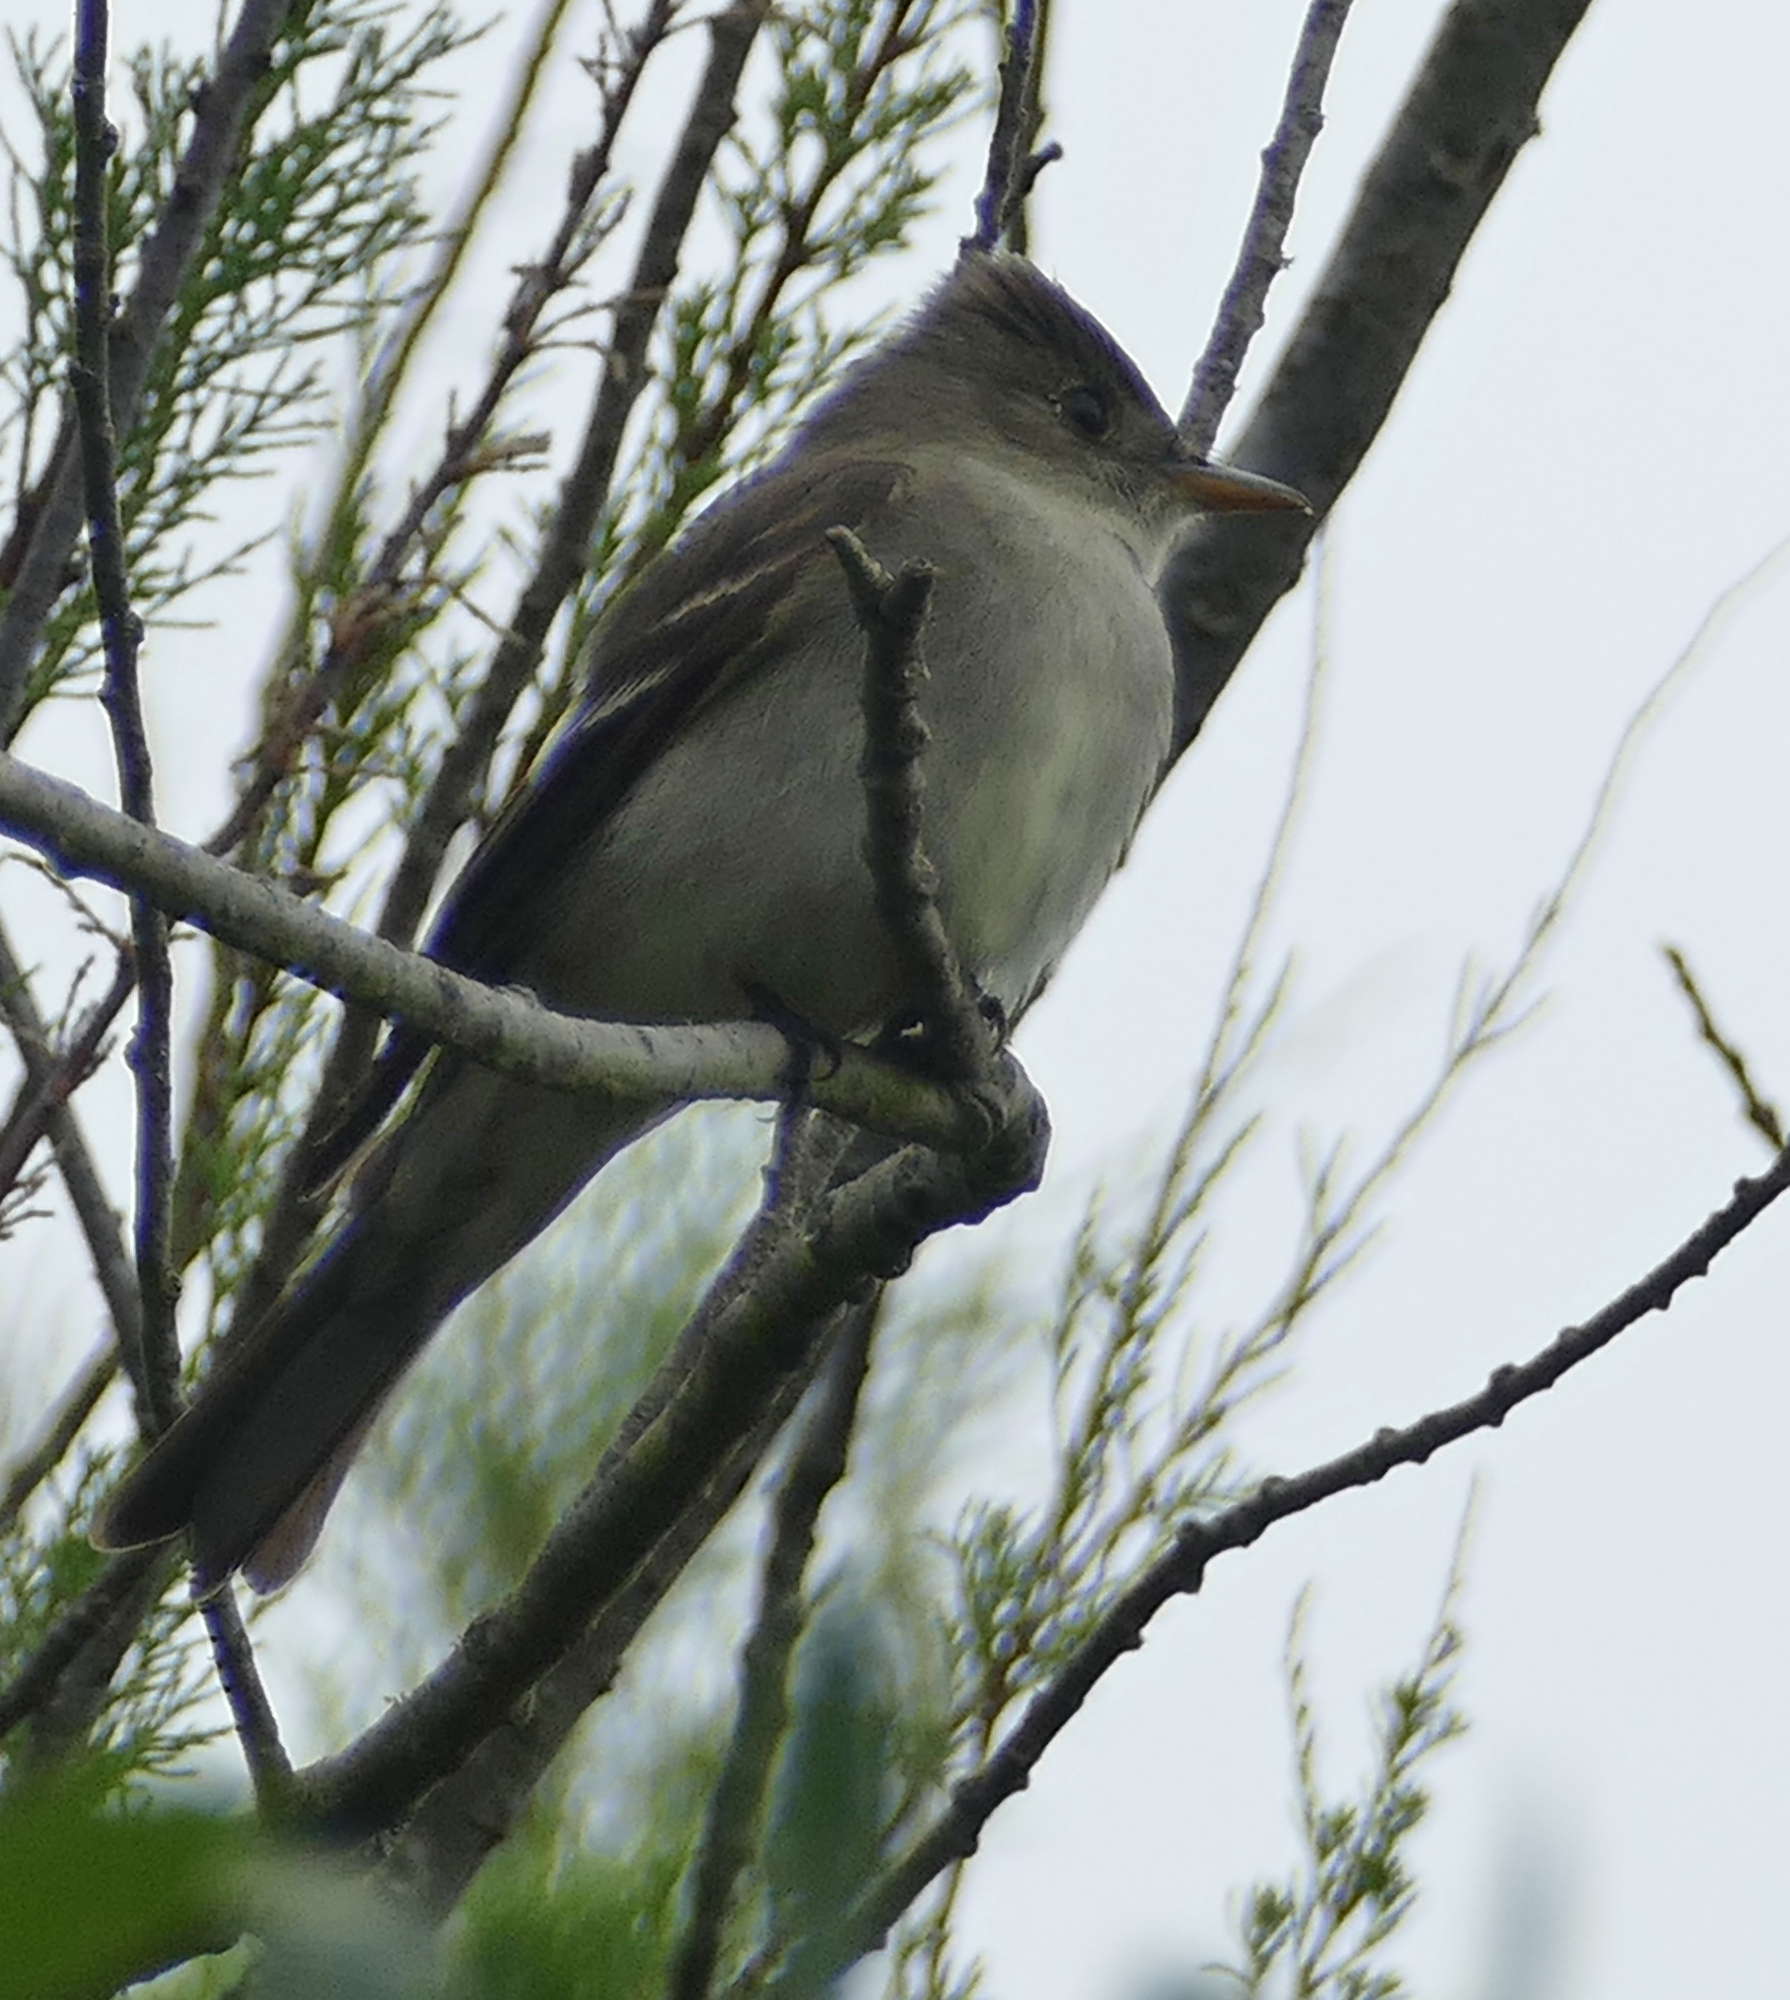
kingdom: Animalia
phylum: Chordata
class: Aves
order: Passeriformes
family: Tyrannidae
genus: Contopus
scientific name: Contopus virens
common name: Eastern wood-pewee
